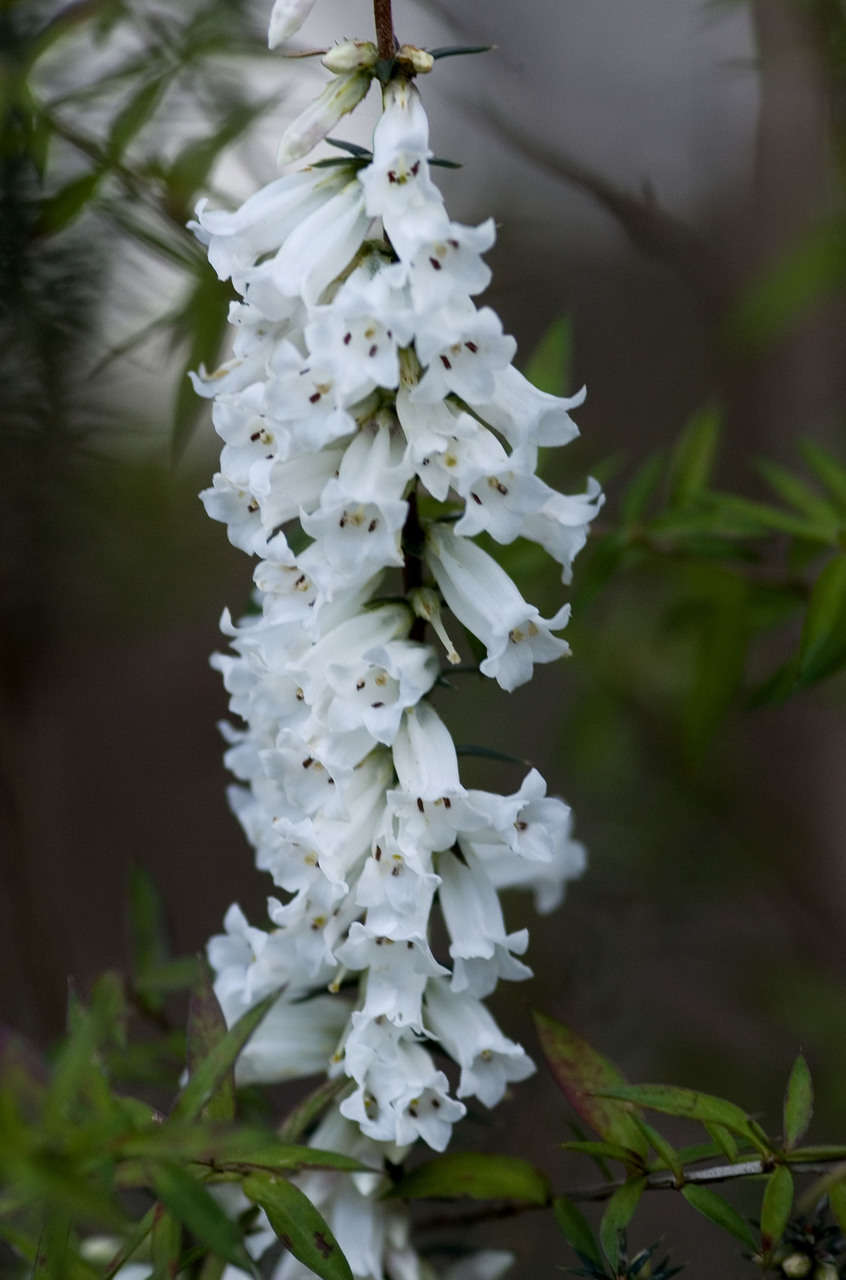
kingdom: Plantae
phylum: Tracheophyta
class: Magnoliopsida
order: Ericales
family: Ericaceae
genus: Epacris
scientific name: Epacris impressa
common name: Common-heath
